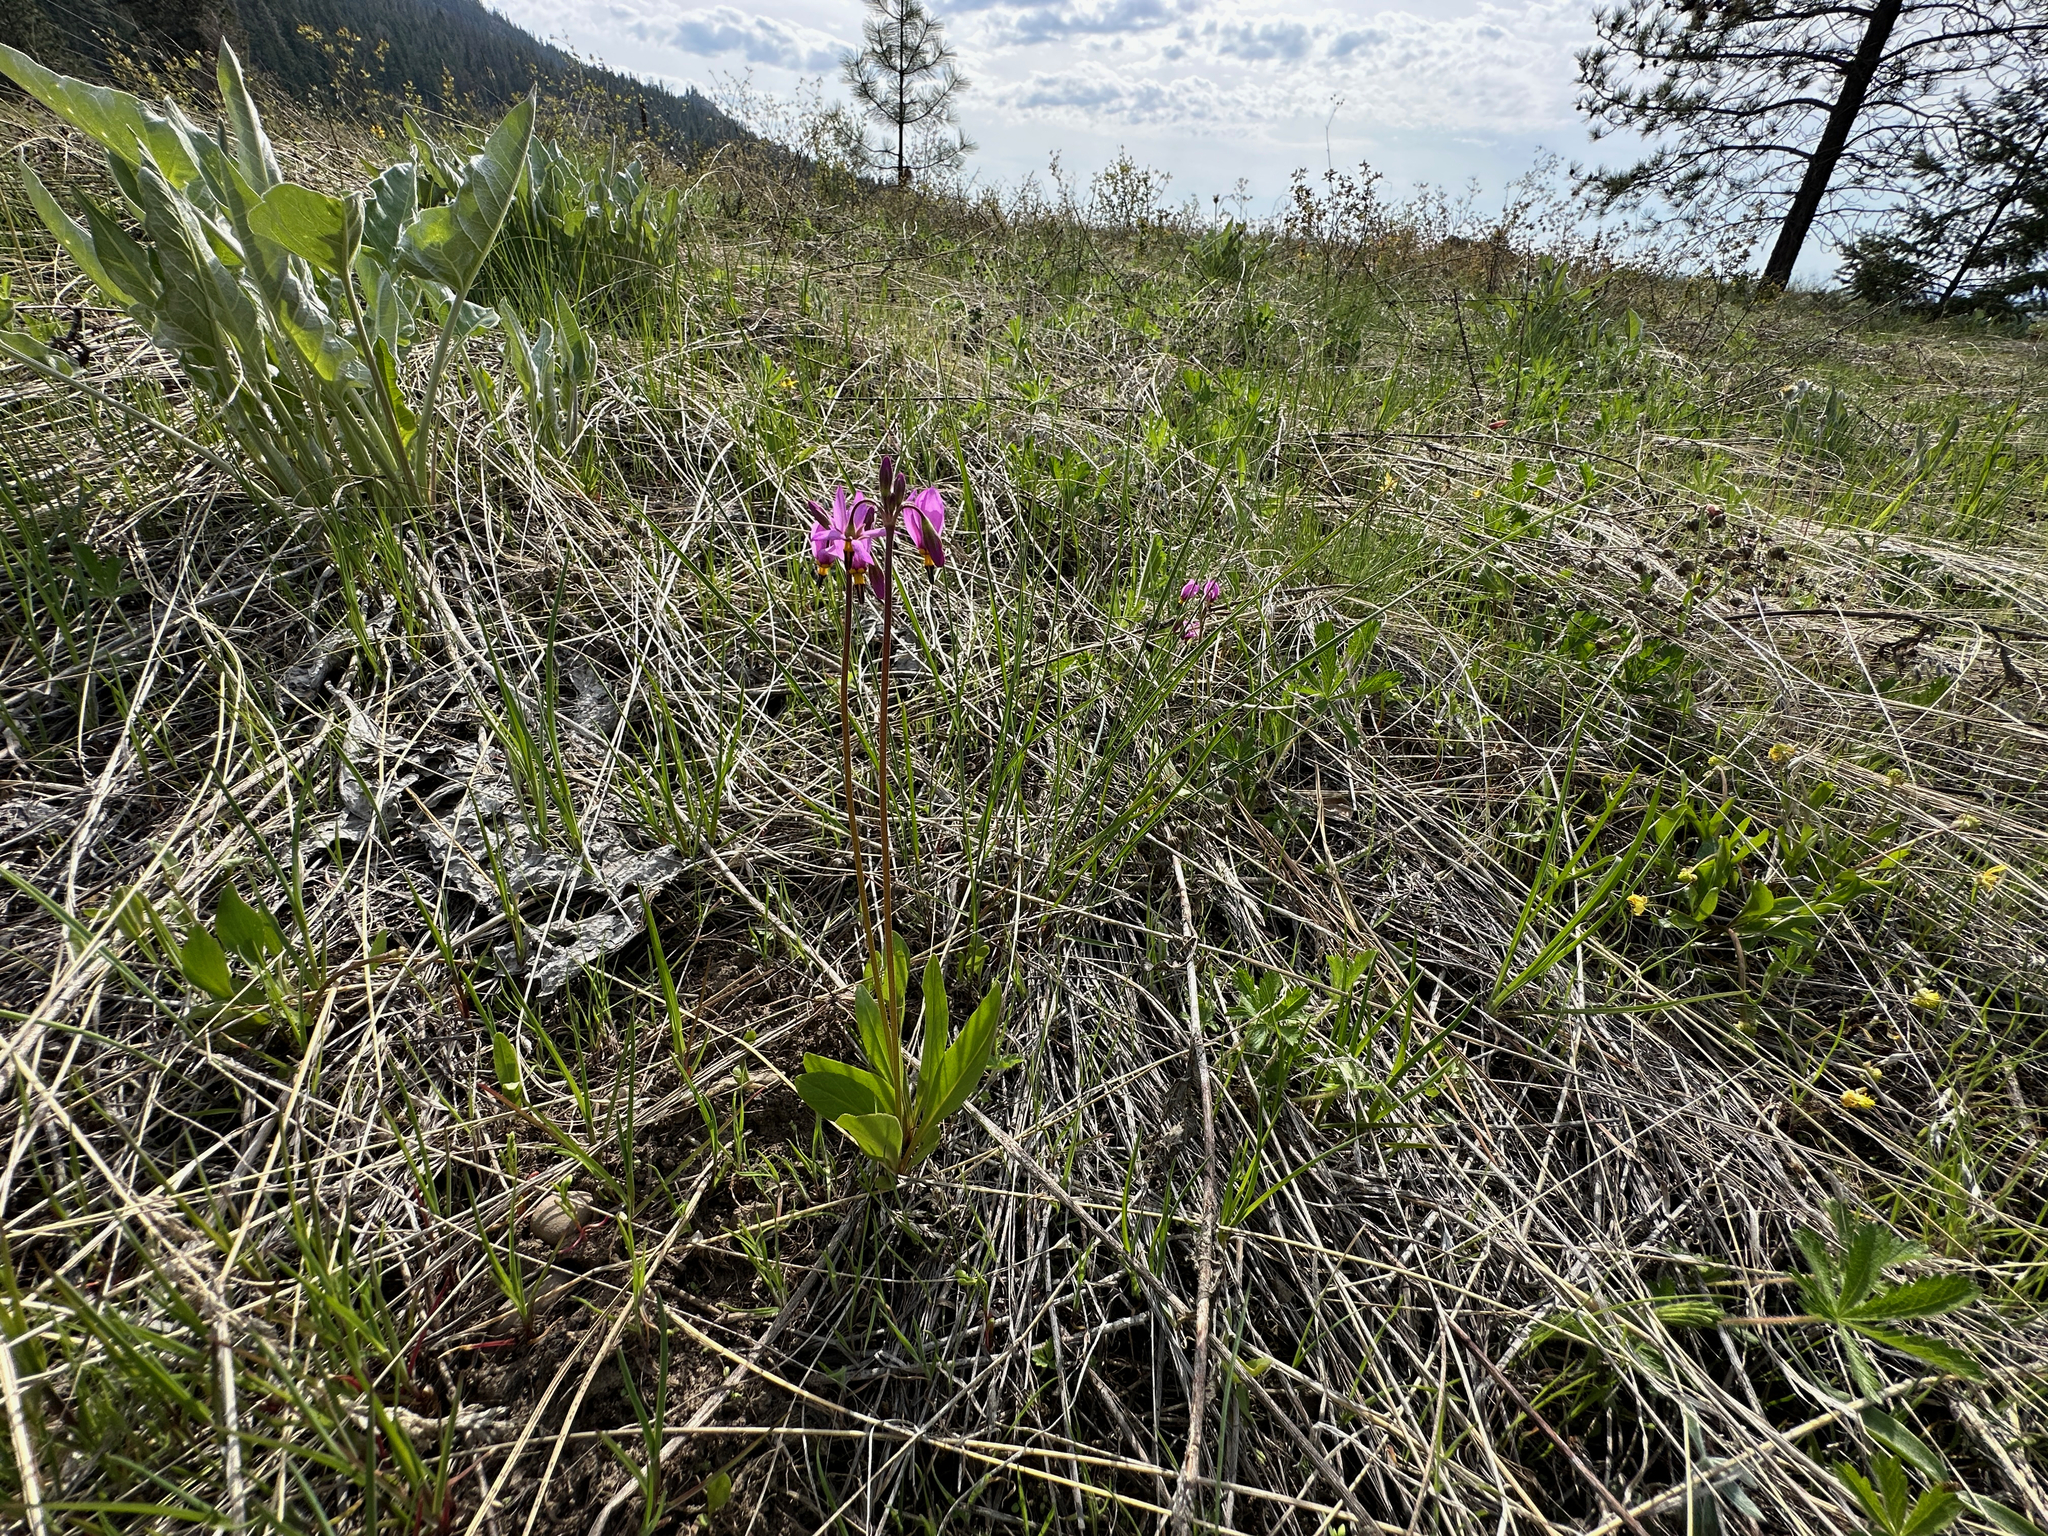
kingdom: Plantae
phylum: Tracheophyta
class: Magnoliopsida
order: Ericales
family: Primulaceae
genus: Dodecatheon
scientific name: Dodecatheon pulchellum
